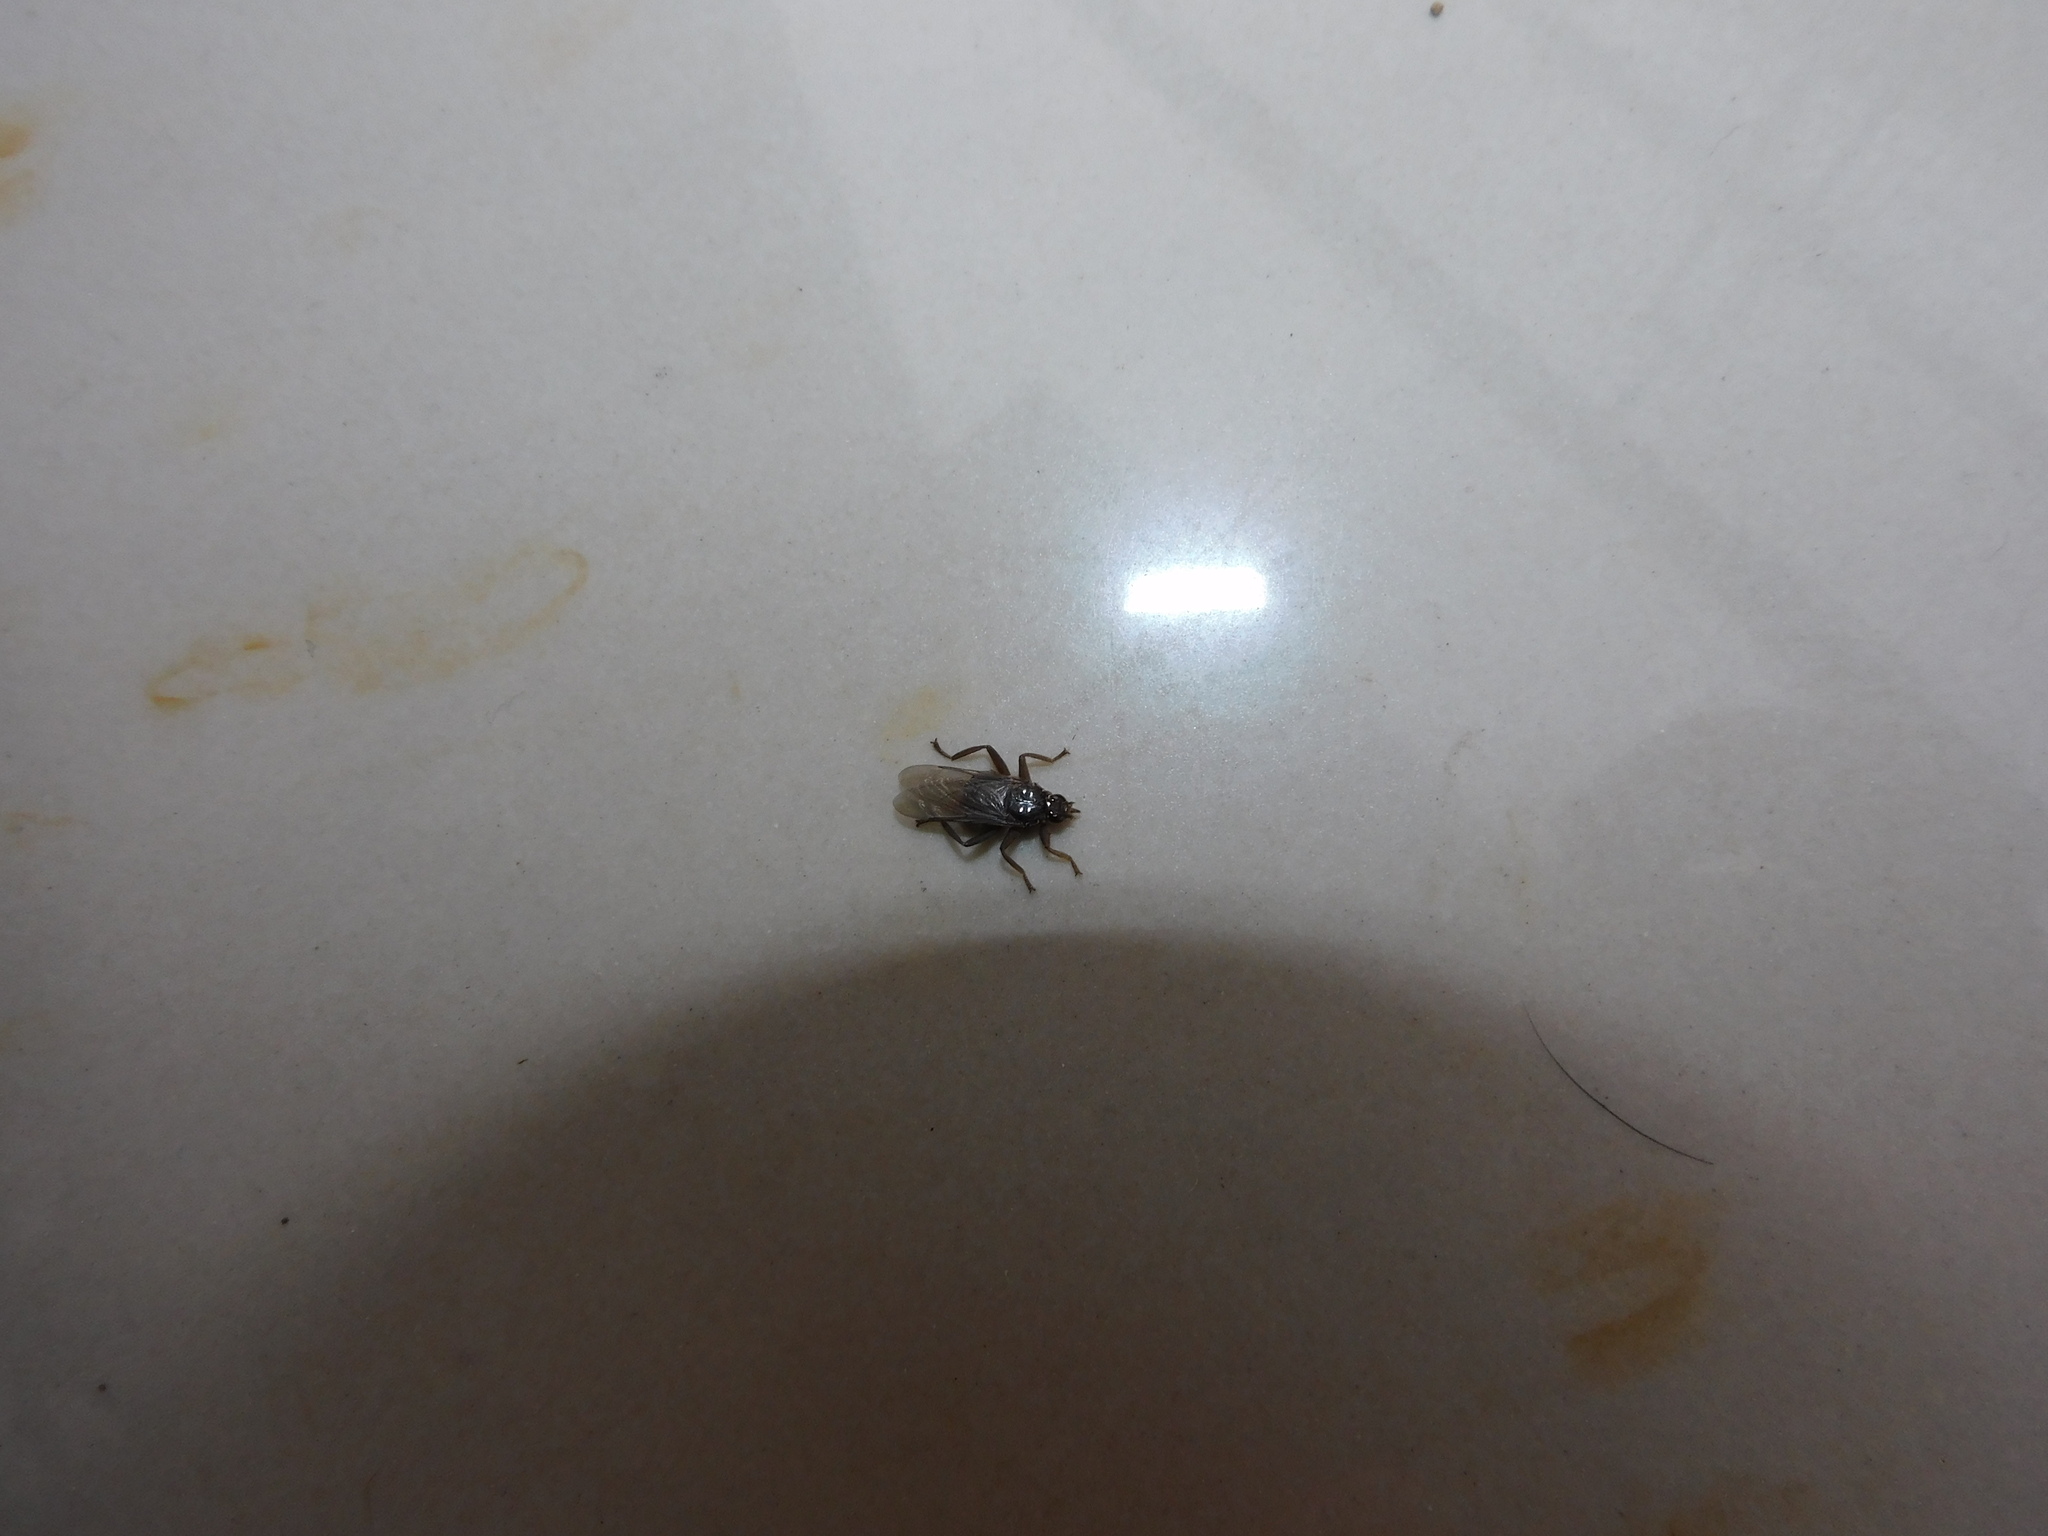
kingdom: Animalia
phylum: Arthropoda
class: Insecta
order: Diptera
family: Hippoboscidae
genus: Pseudolynchia
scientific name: Pseudolynchia canariensis
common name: Louse fly
